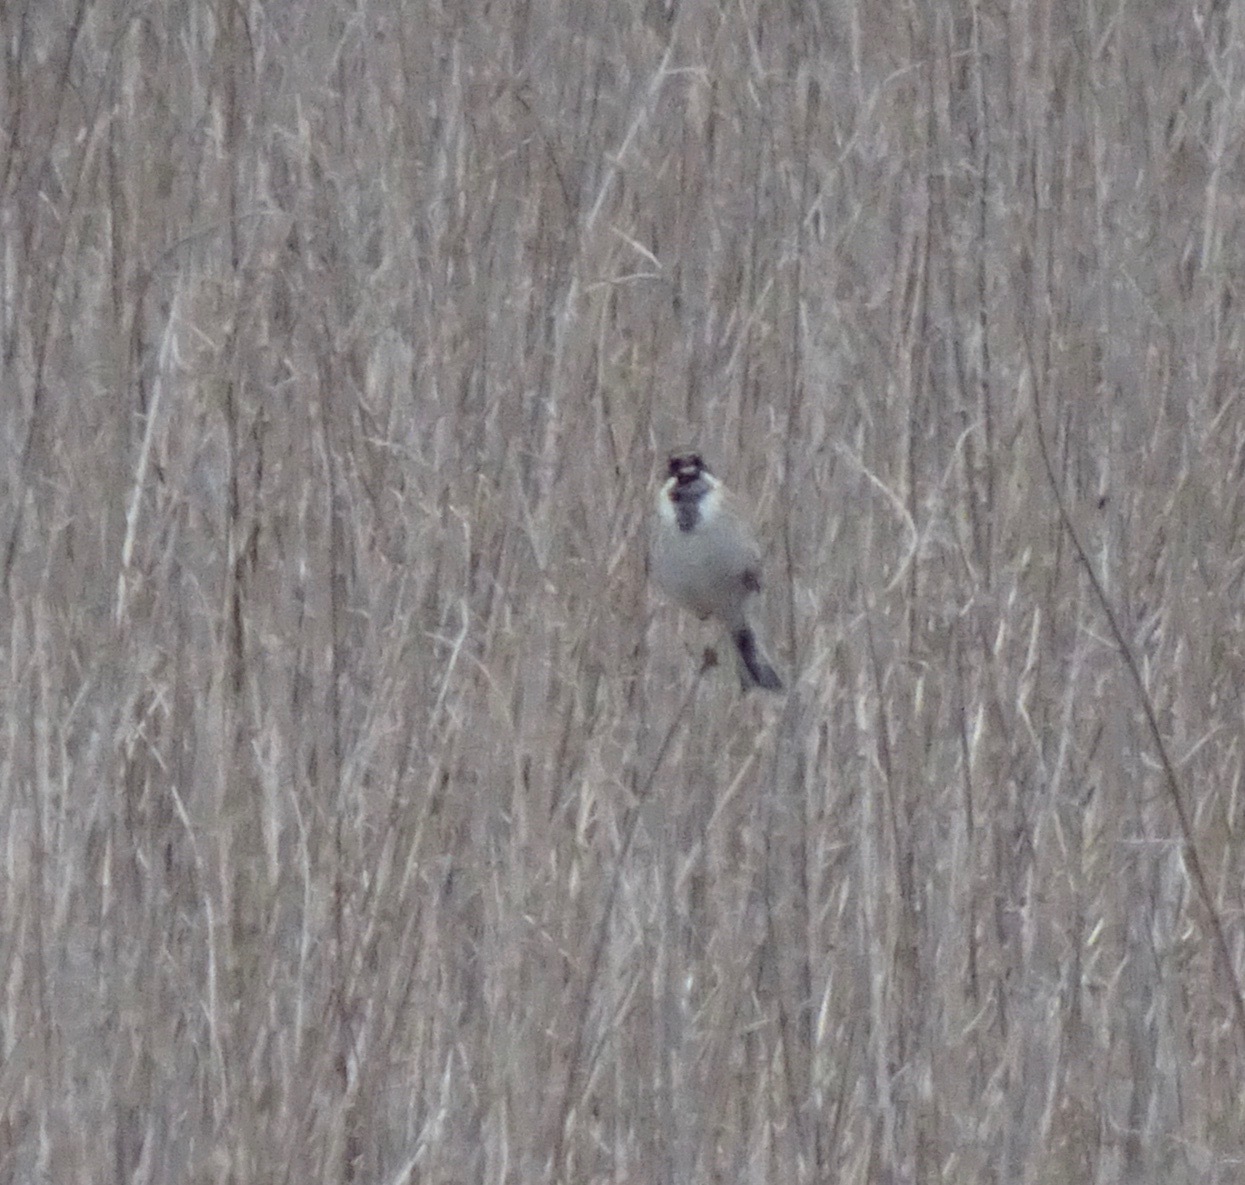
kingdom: Animalia
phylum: Chordata
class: Aves
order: Passeriformes
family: Emberizidae
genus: Emberiza
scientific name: Emberiza schoeniclus
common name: Reed bunting
